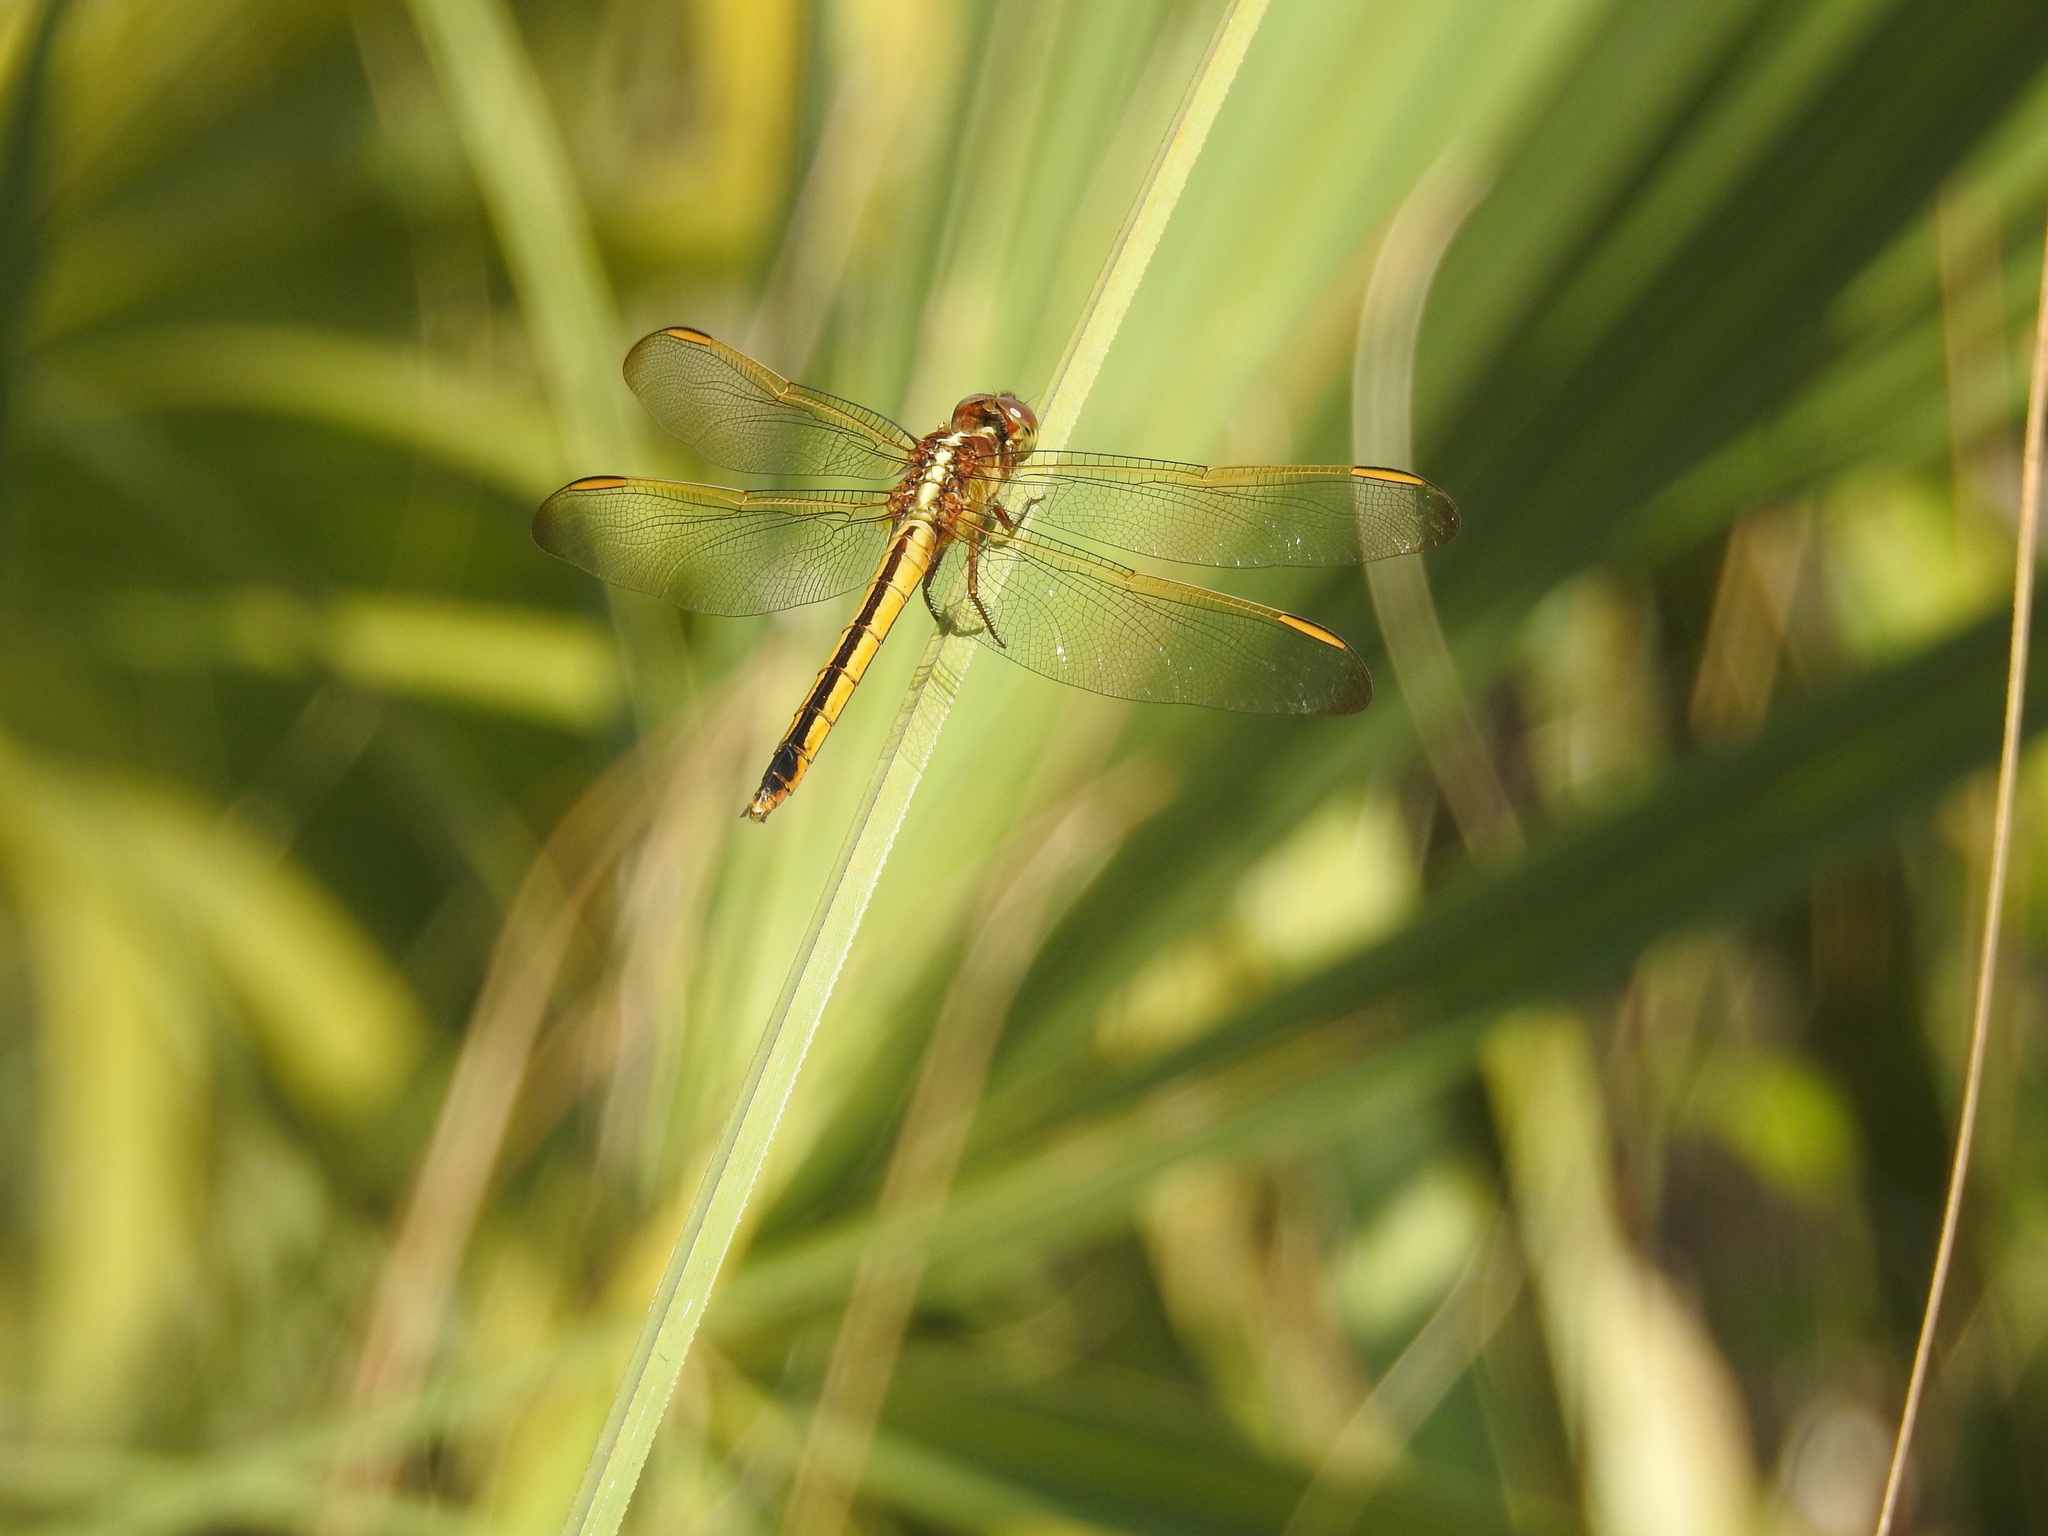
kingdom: Animalia
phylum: Arthropoda
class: Insecta
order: Odonata
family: Libellulidae
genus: Libellula
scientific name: Libellula needhami
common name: Needham's skimmer
